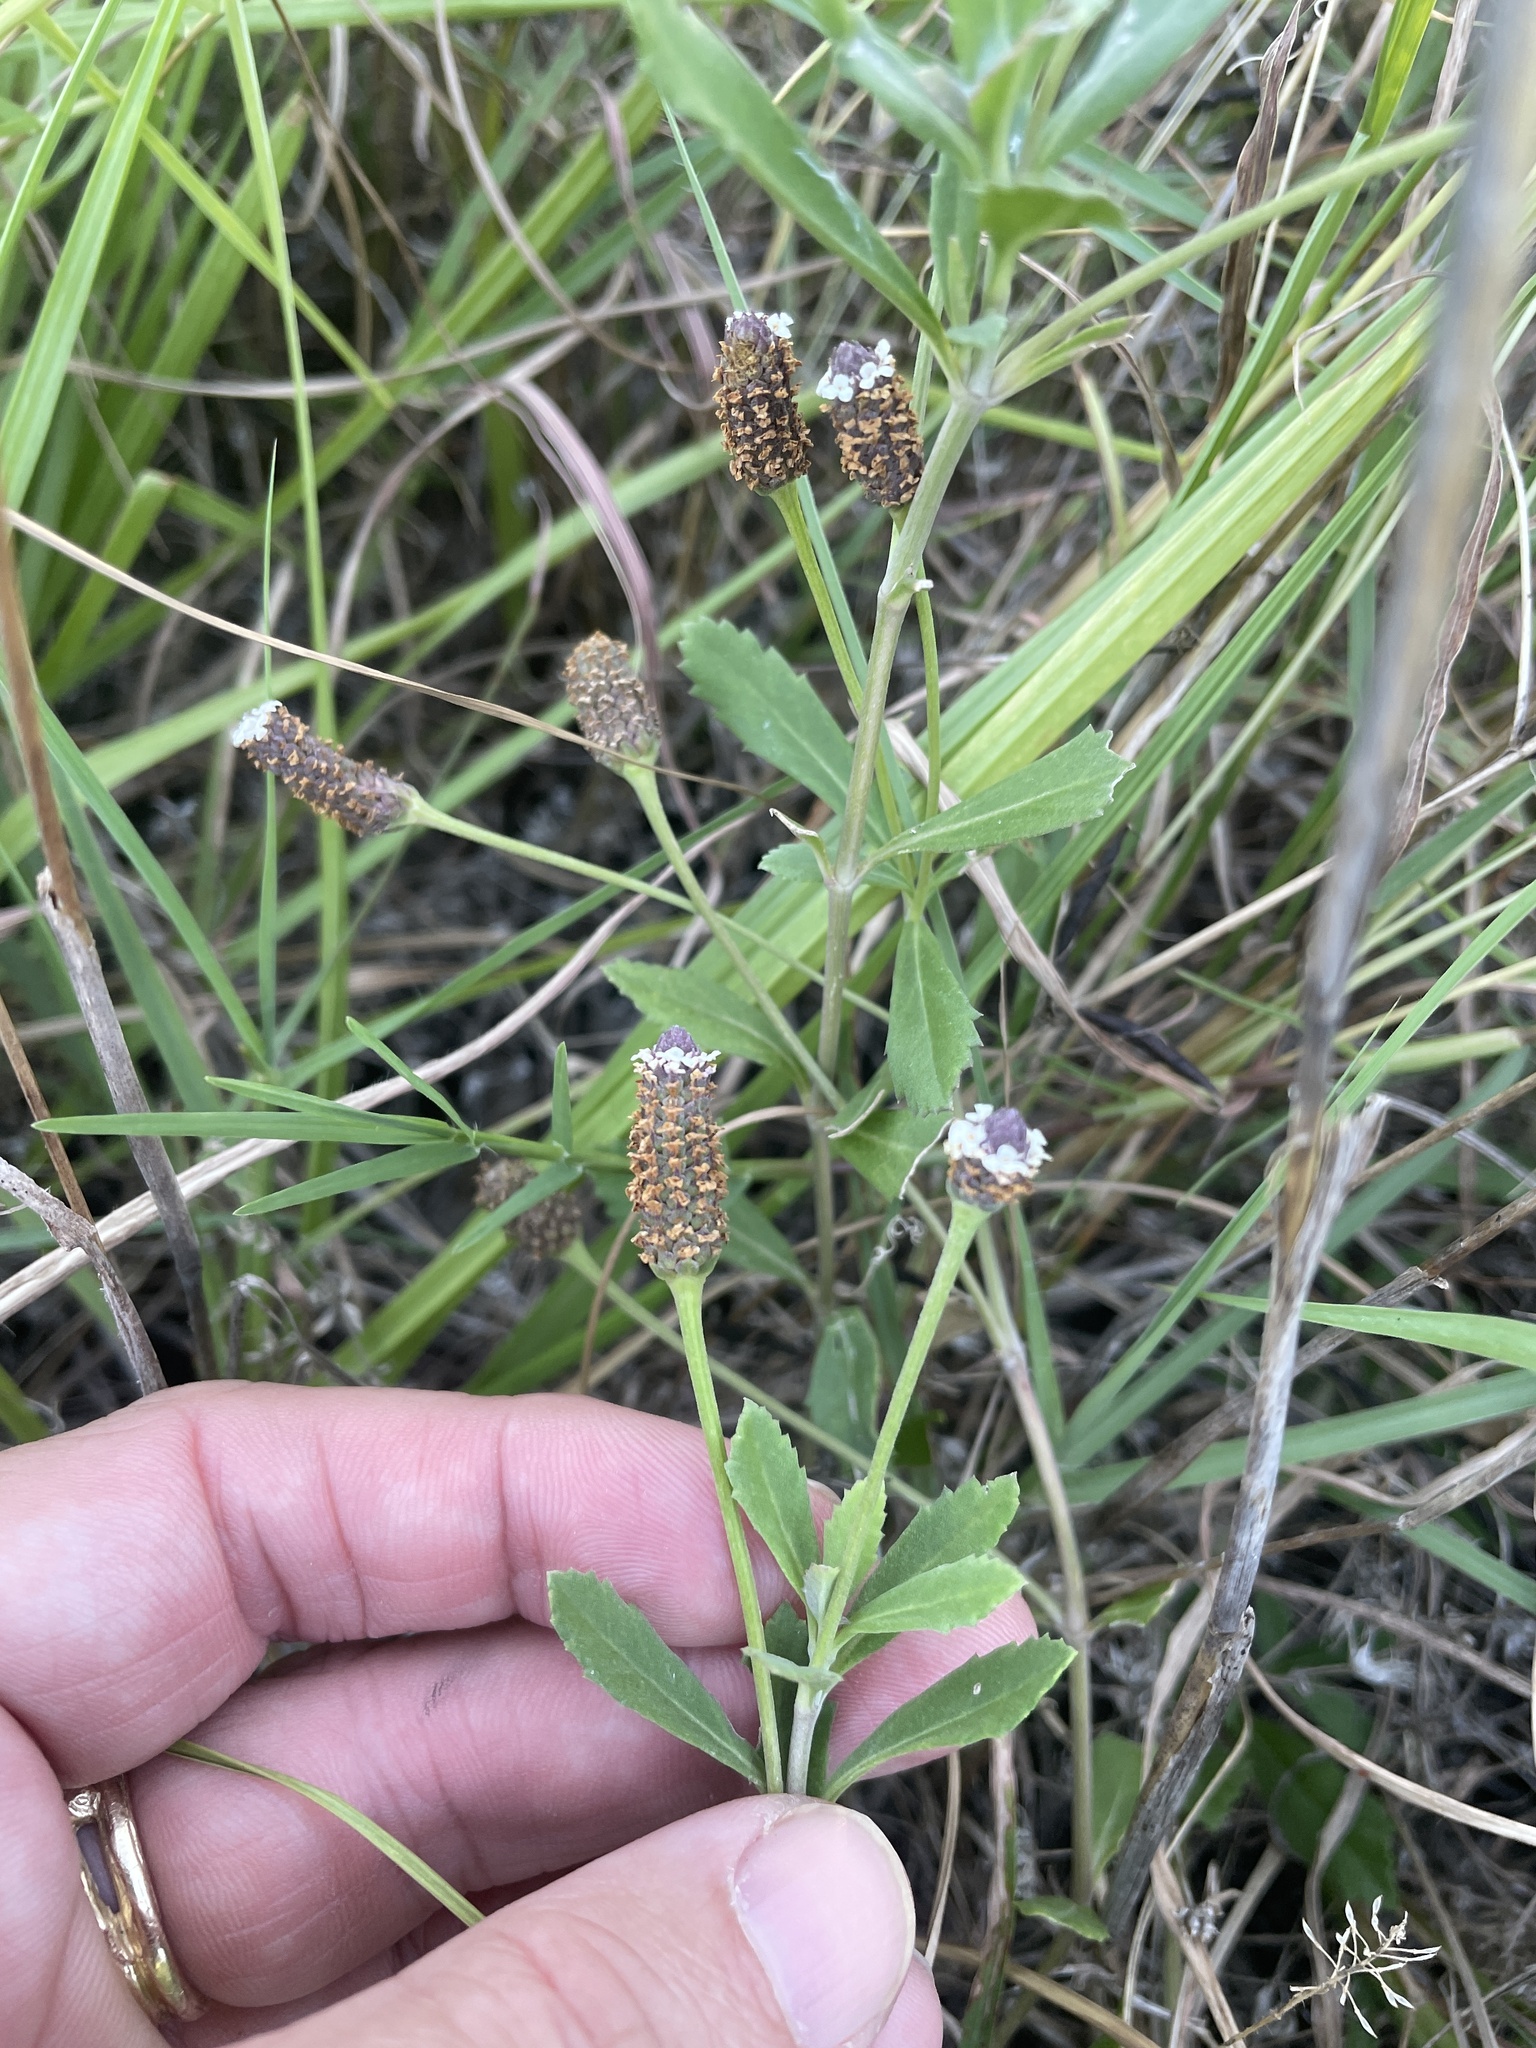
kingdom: Plantae
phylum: Tracheophyta
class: Magnoliopsida
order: Lamiales
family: Verbenaceae
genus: Phyla
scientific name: Phyla nodiflora
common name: Frogfruit
